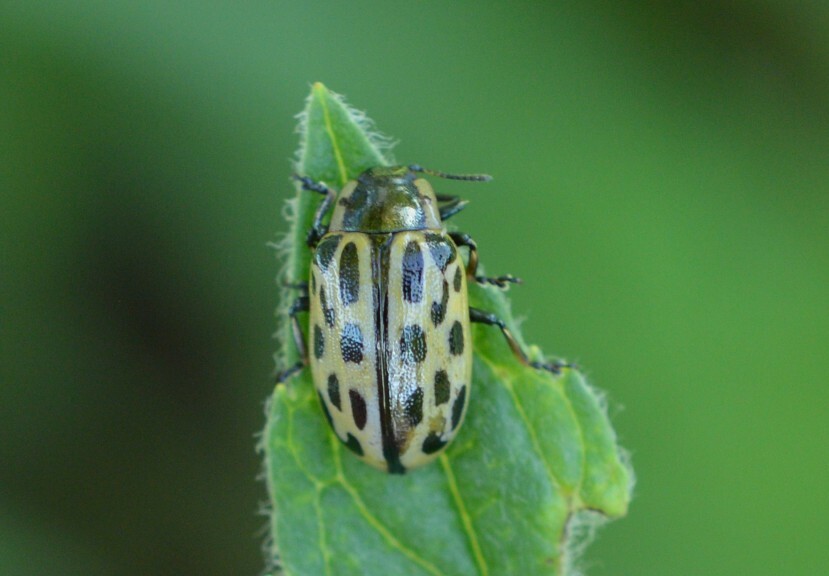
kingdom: Animalia
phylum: Arthropoda
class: Insecta
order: Coleoptera
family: Chrysomelidae
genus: Chrysomela
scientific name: Chrysomela vigintipunctata
